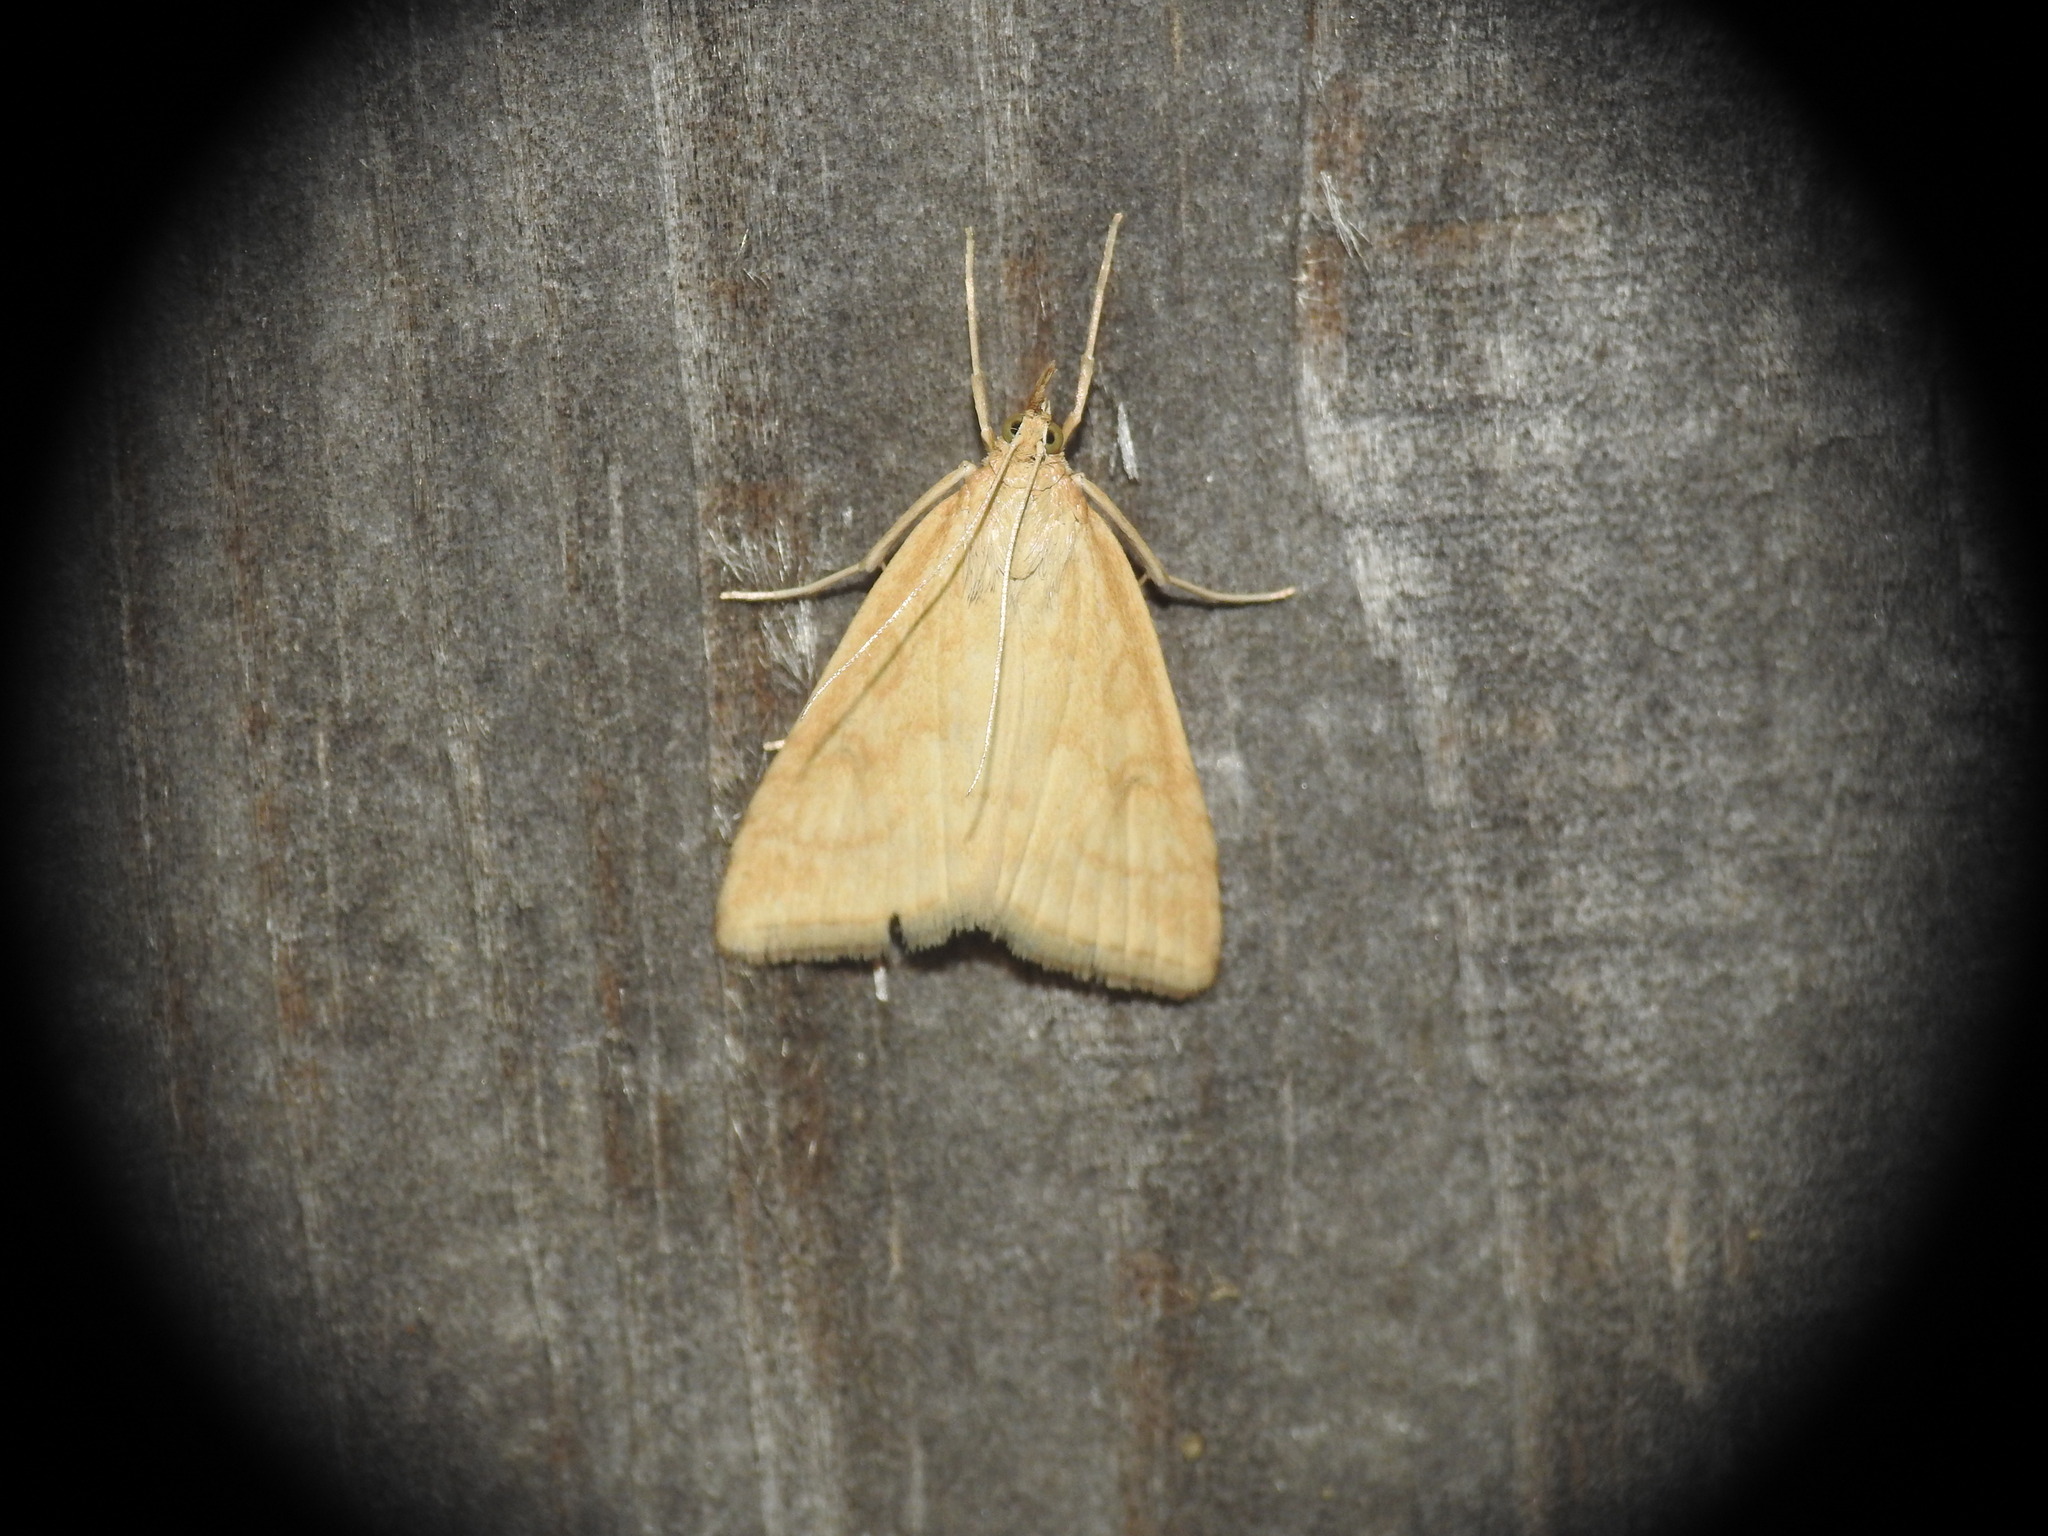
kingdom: Animalia
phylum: Arthropoda
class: Insecta
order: Lepidoptera
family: Crambidae
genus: Udea
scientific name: Udea lutealis
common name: Pale straw pearl
